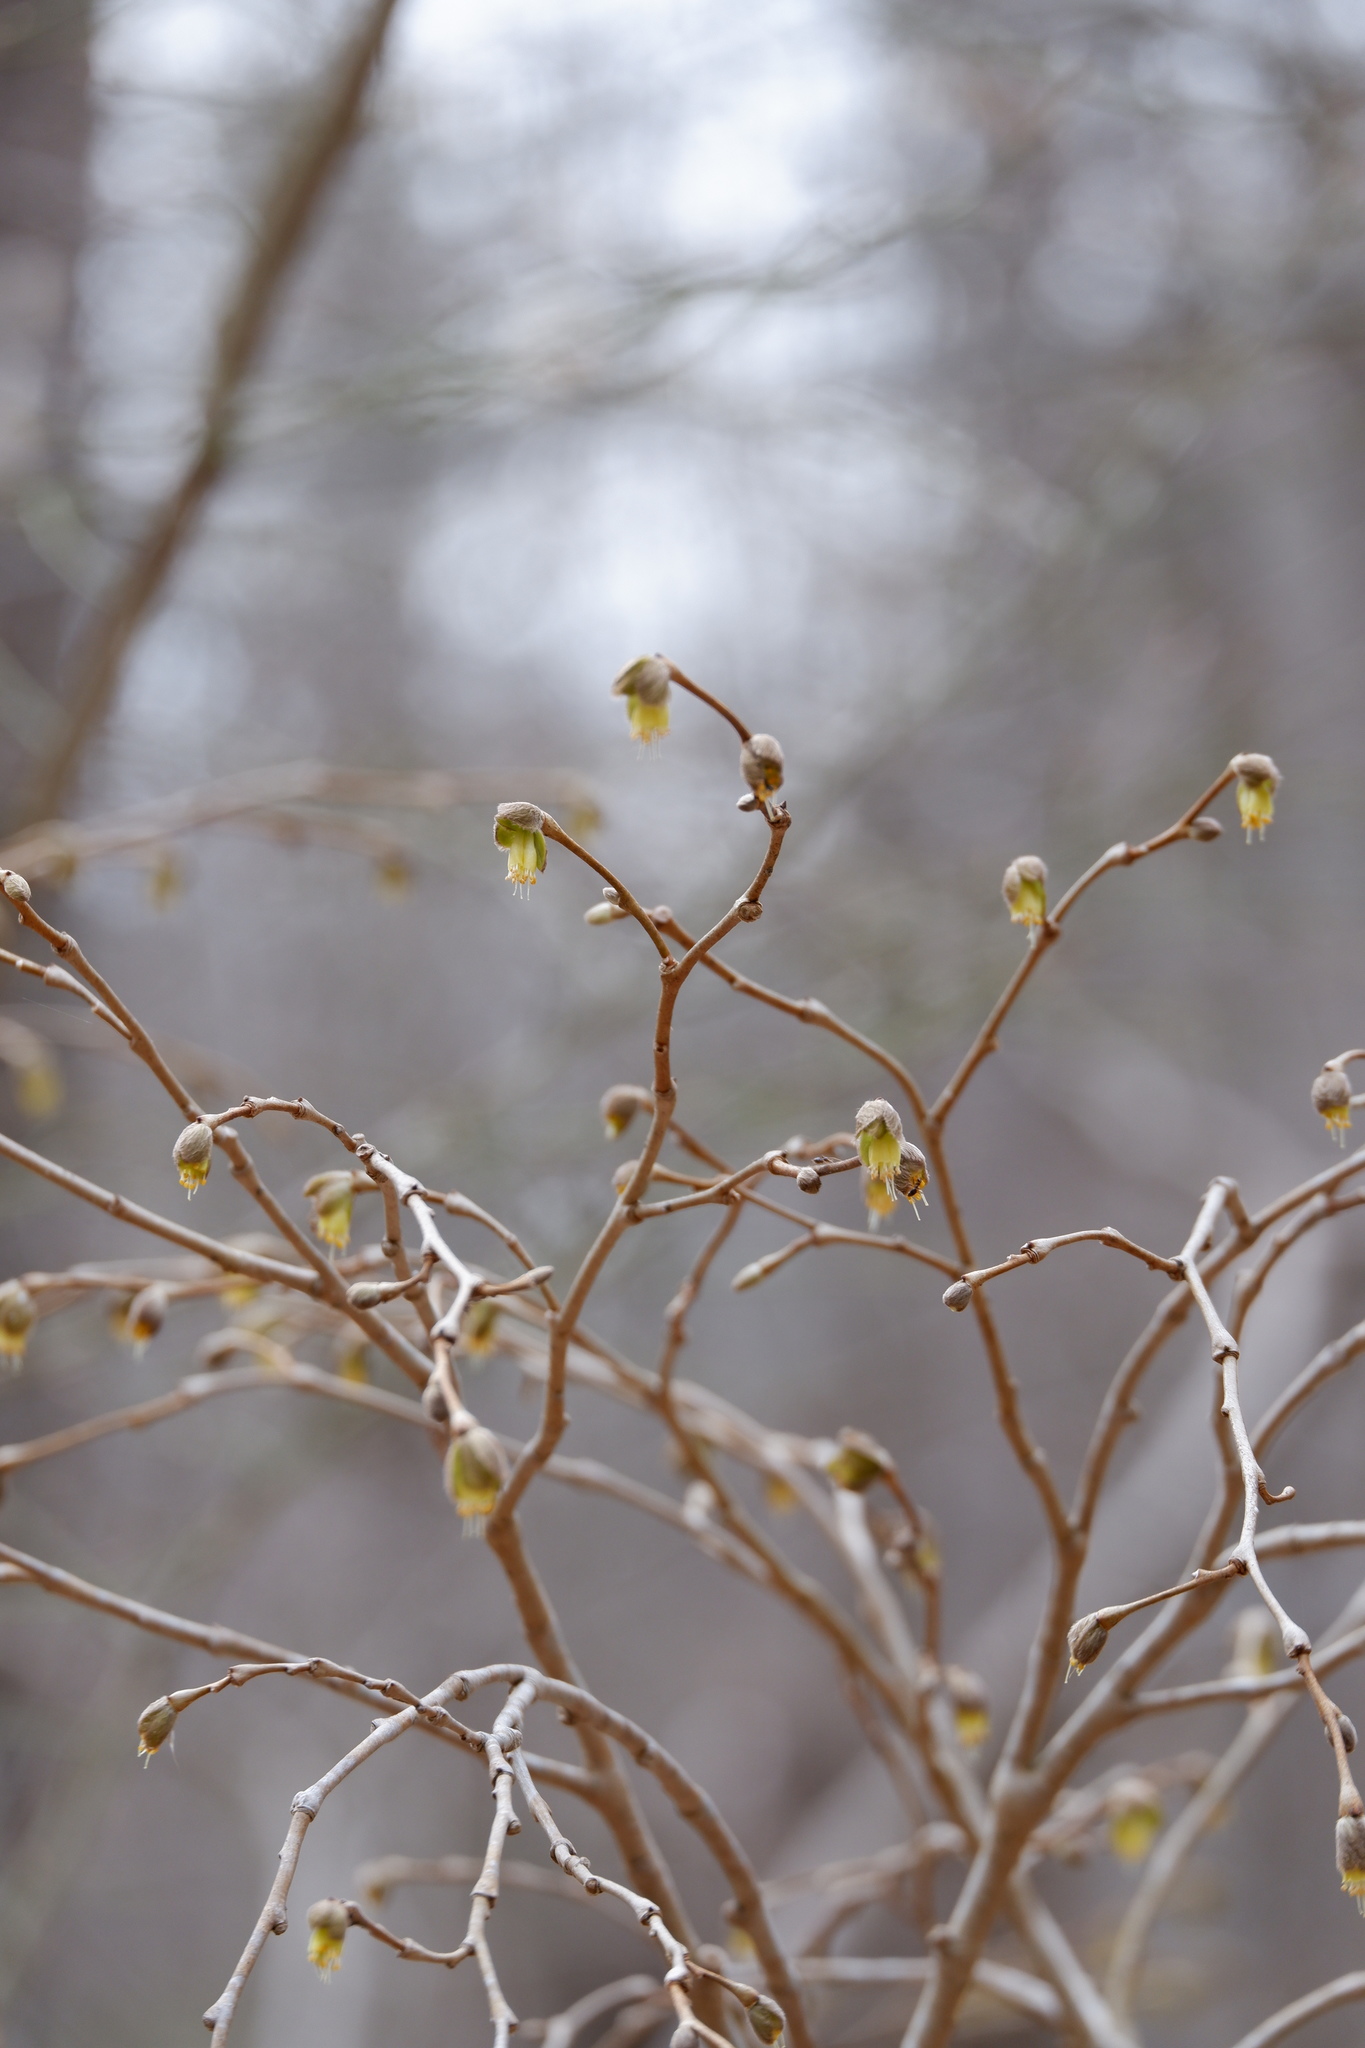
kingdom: Plantae
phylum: Tracheophyta
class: Magnoliopsida
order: Malvales
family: Thymelaeaceae
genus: Dirca
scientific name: Dirca palustris
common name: Leatherwood
